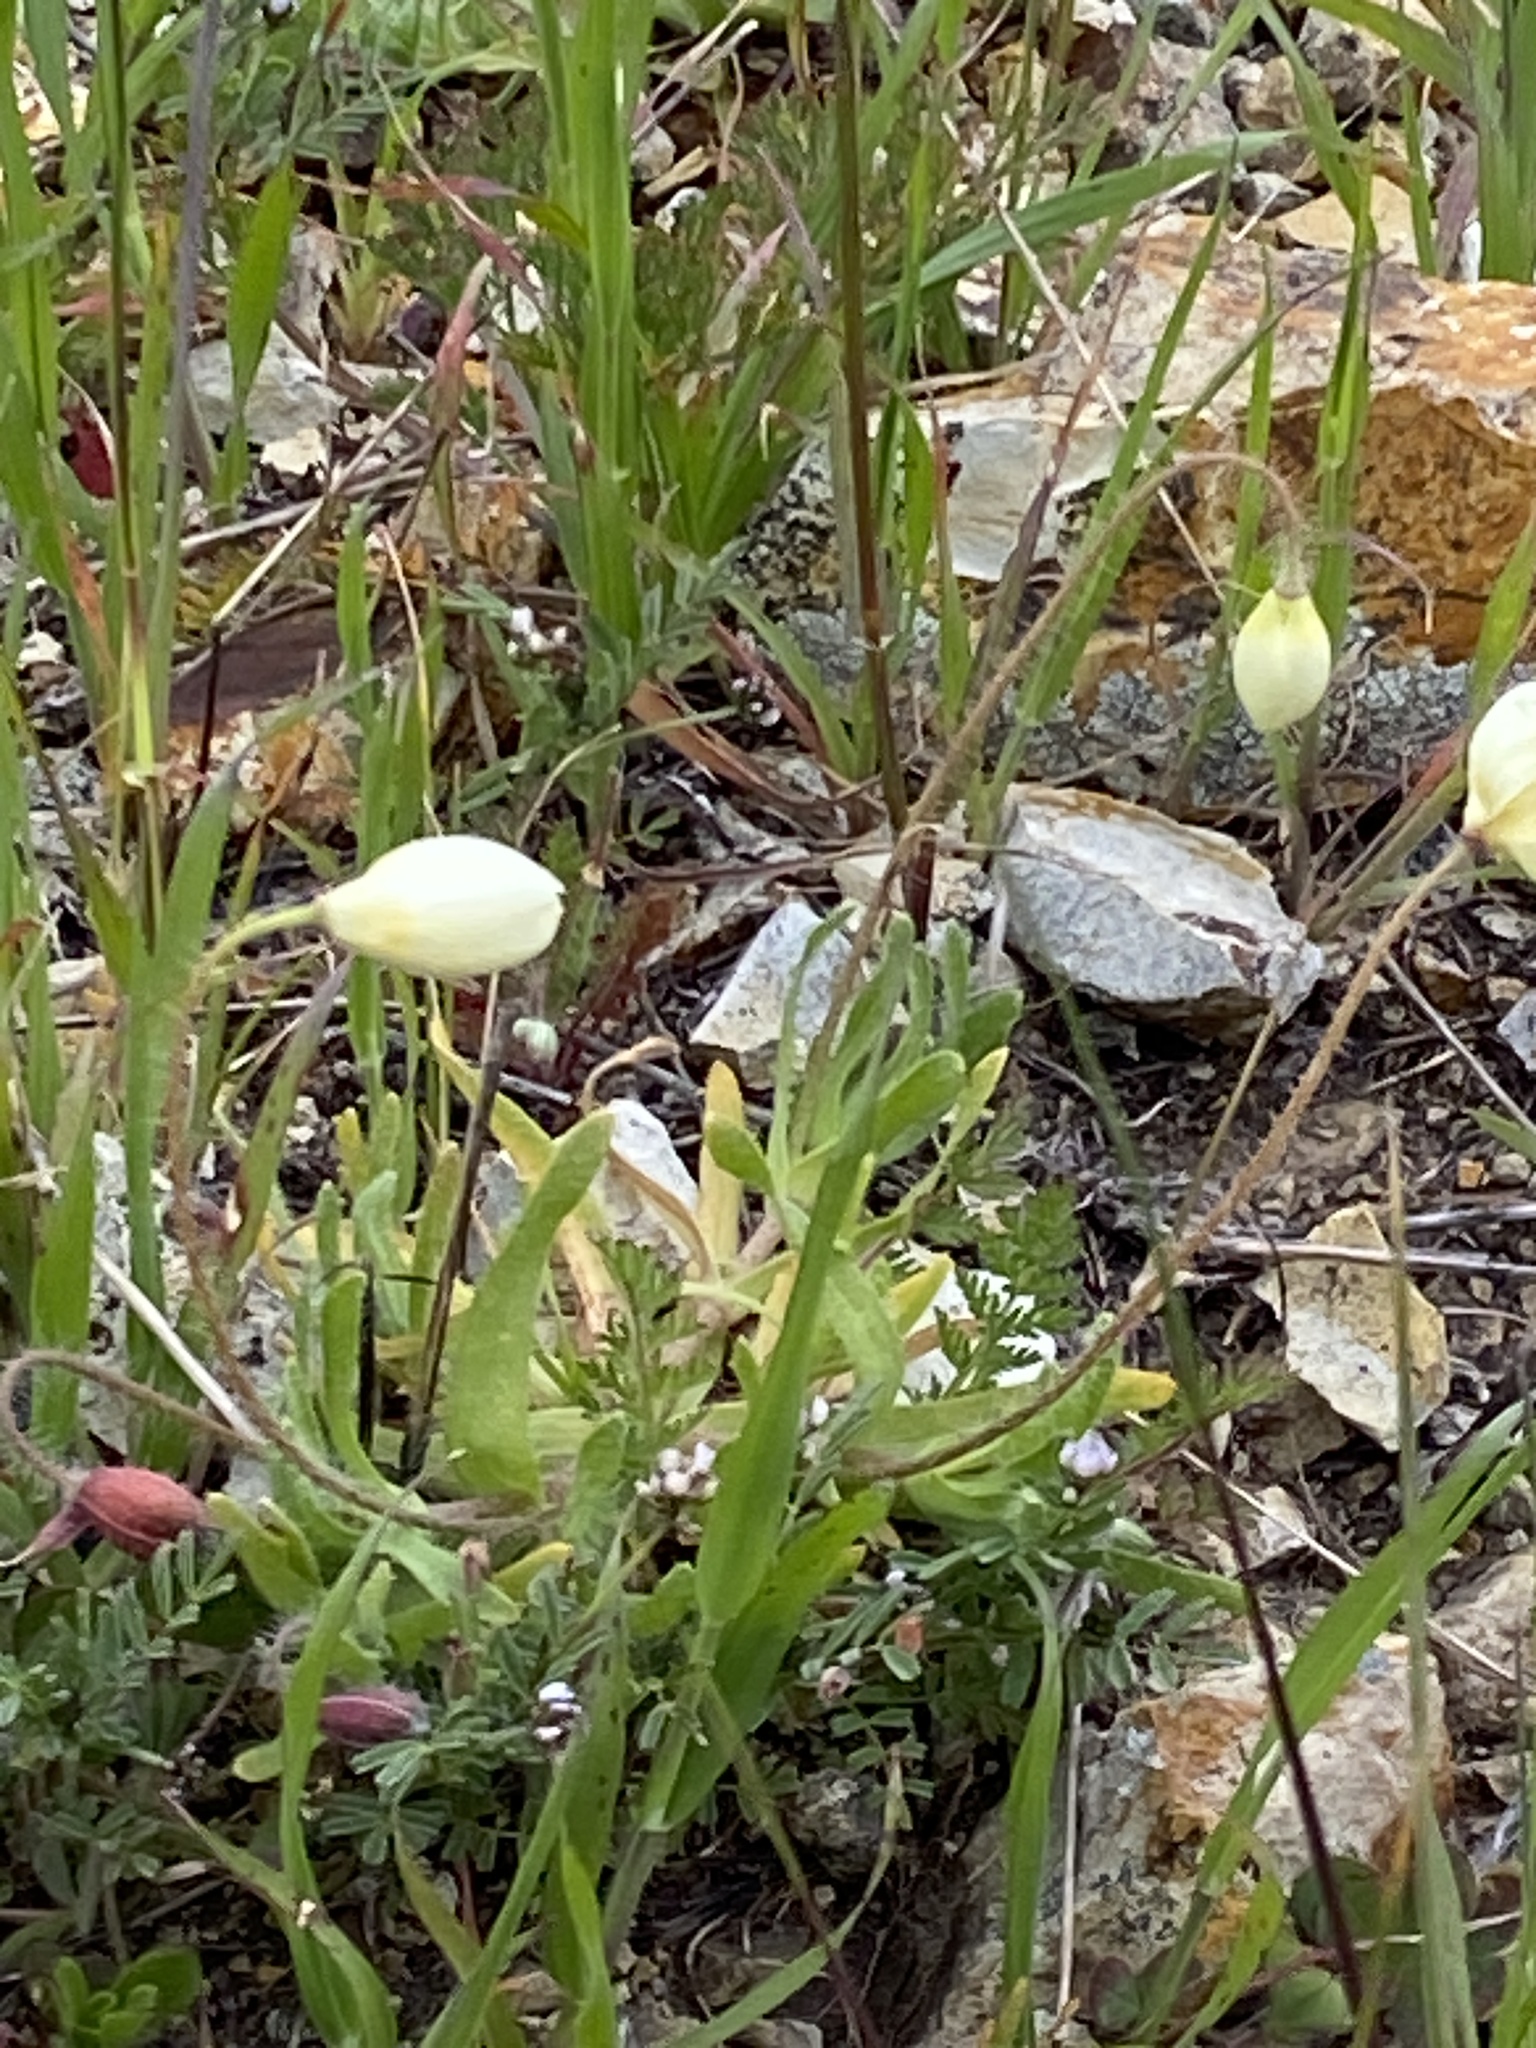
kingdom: Plantae
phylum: Tracheophyta
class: Magnoliopsida
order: Ranunculales
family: Papaveraceae
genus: Platystemon
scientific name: Platystemon californicus
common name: Cream-cups
